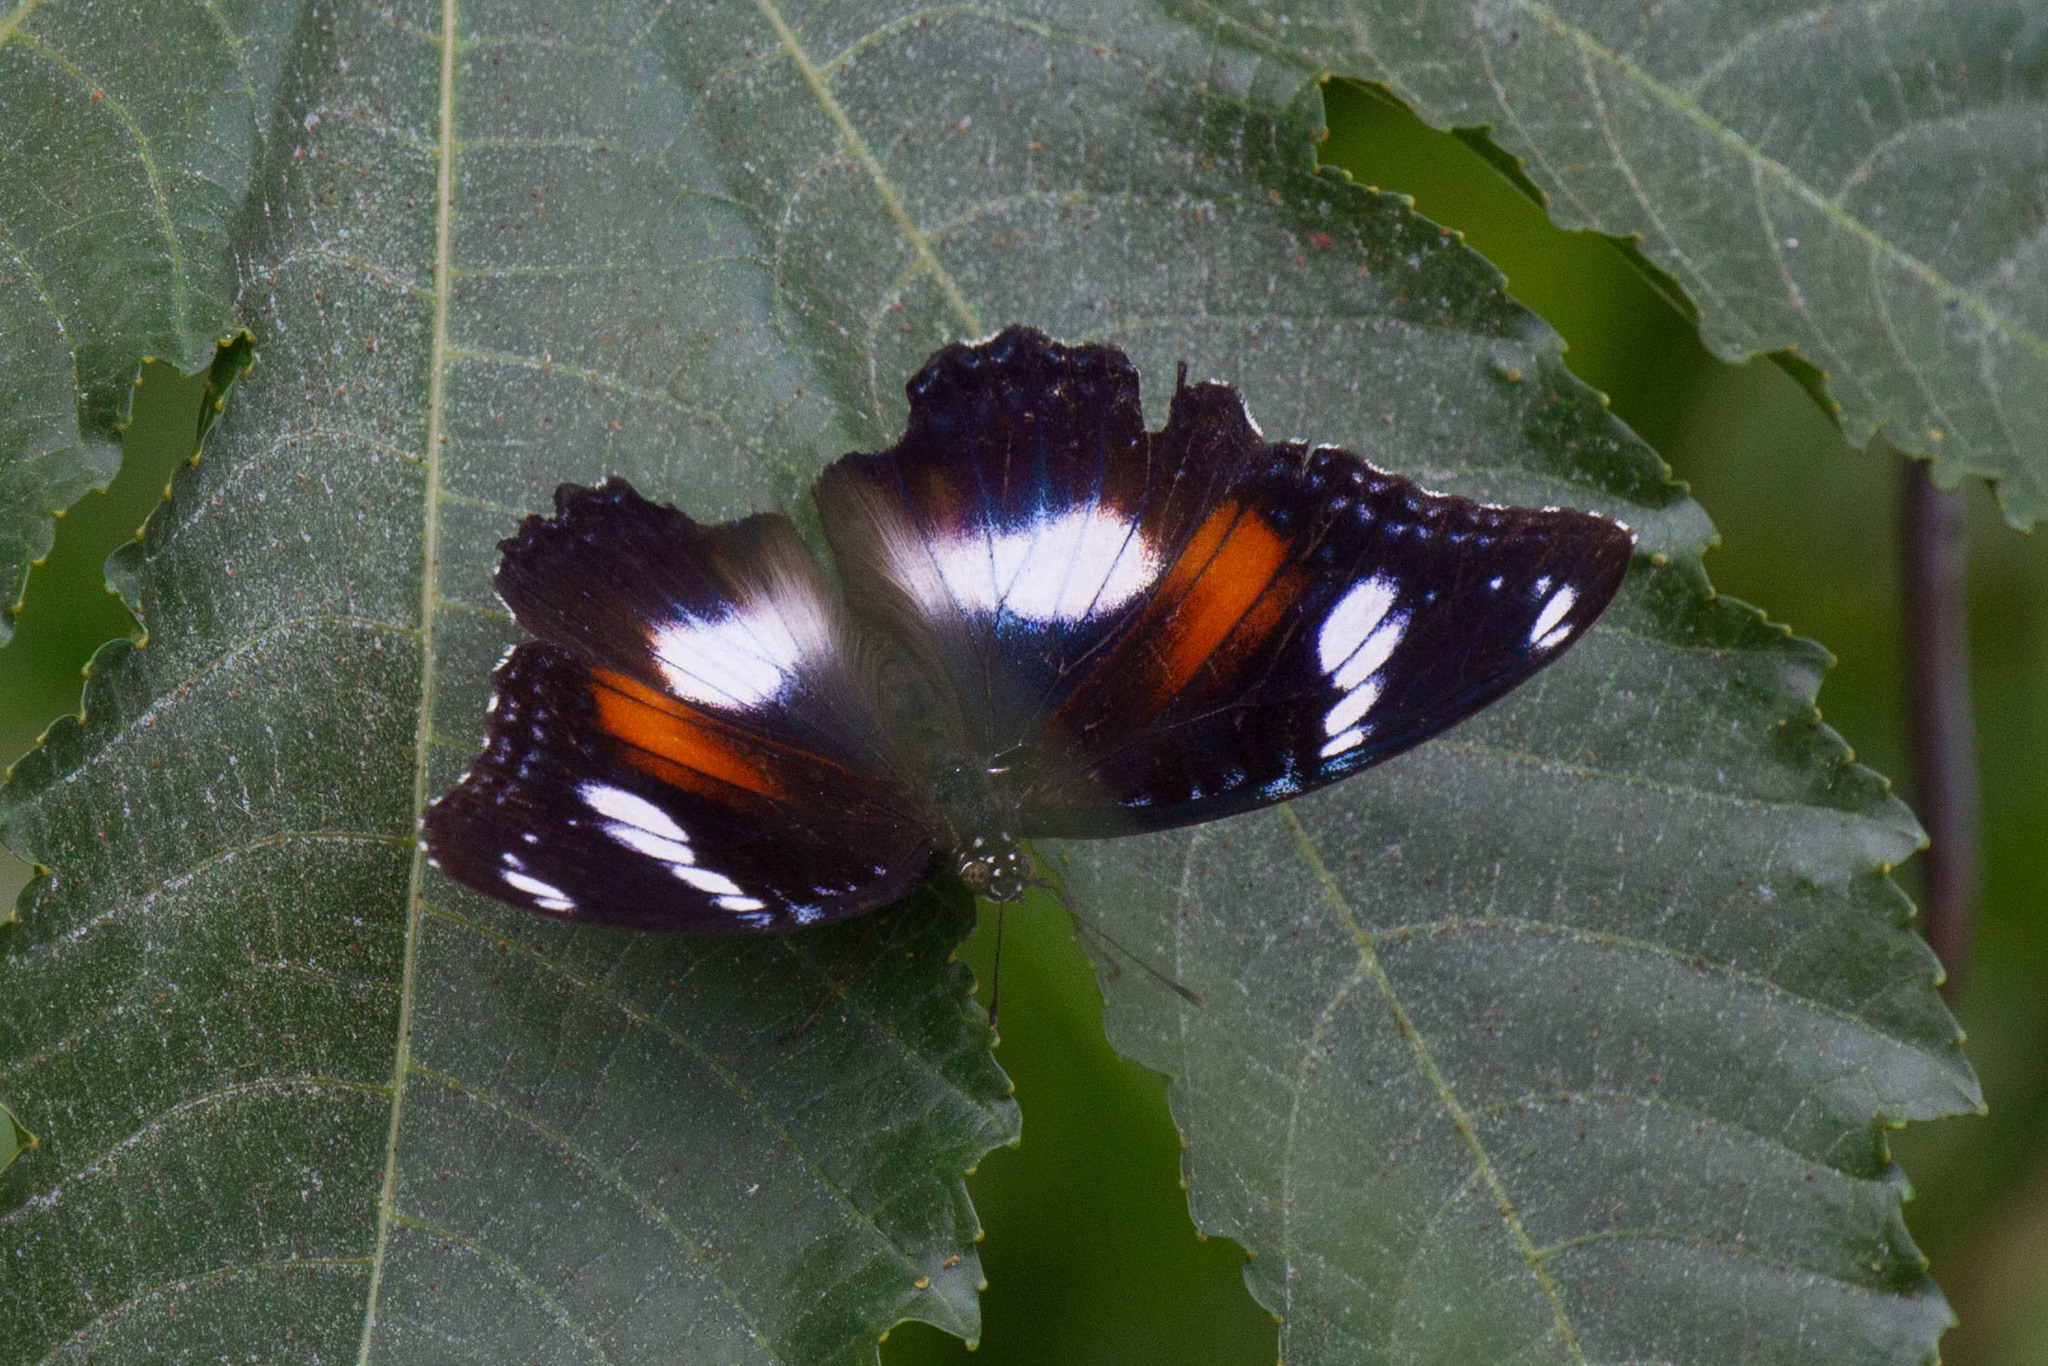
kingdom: Animalia
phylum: Arthropoda
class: Insecta
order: Lepidoptera
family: Nymphalidae
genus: Hypolimnas
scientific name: Hypolimnas bolina
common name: Great eggfly
